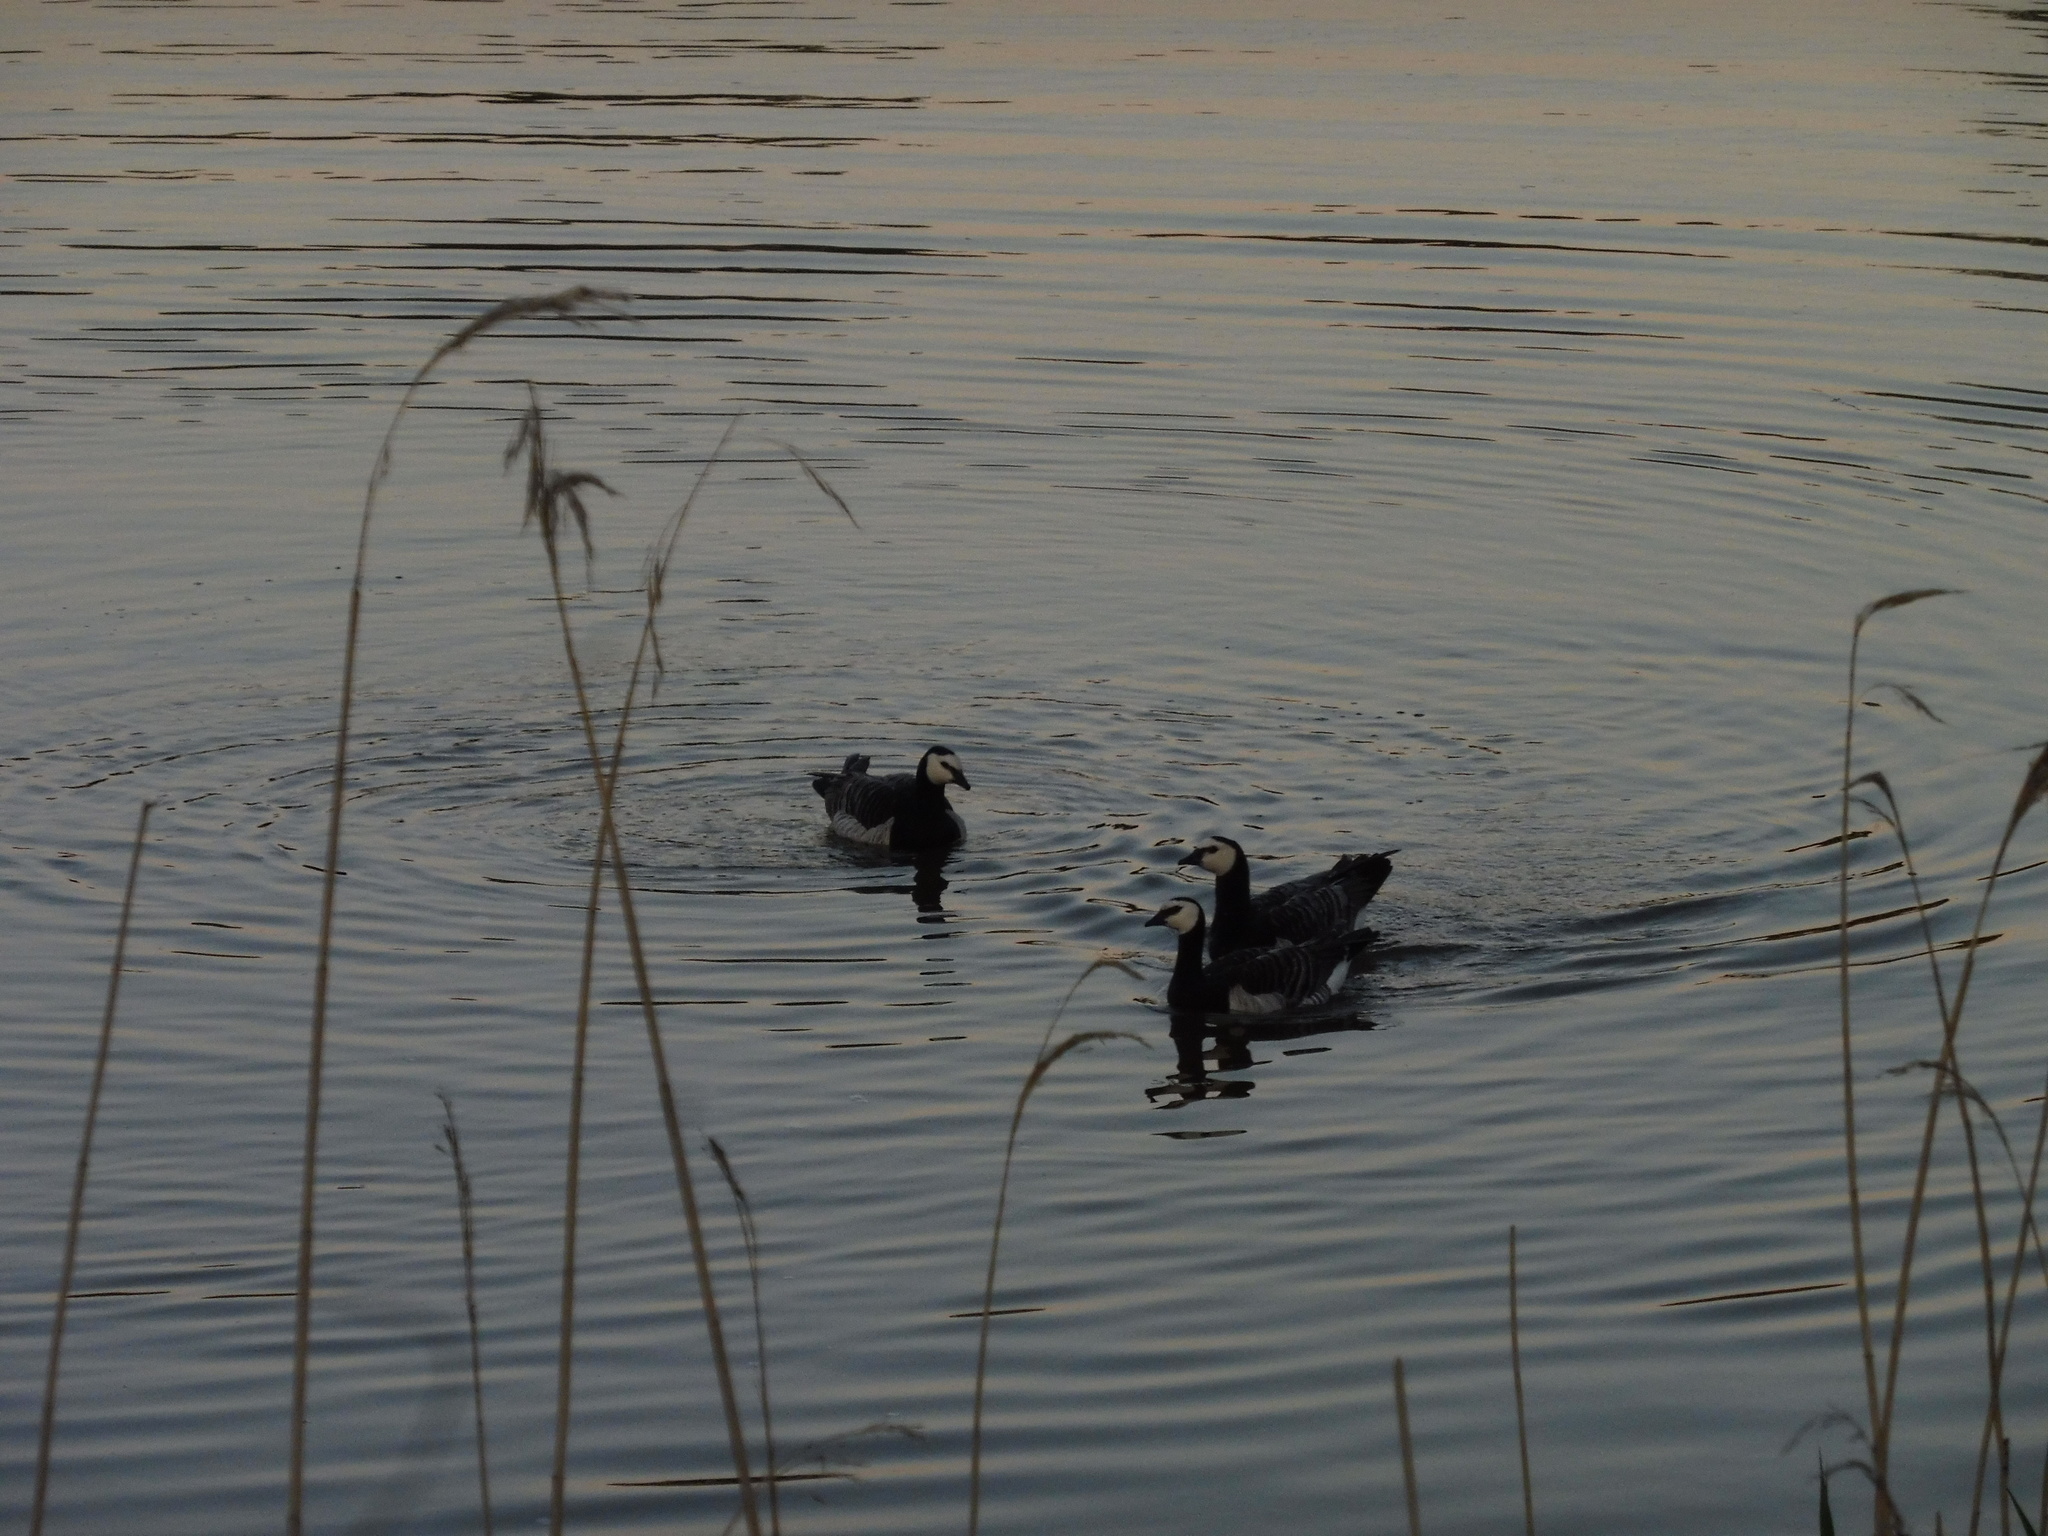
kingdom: Animalia
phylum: Chordata
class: Aves
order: Anseriformes
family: Anatidae
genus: Branta
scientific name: Branta leucopsis
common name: Barnacle goose
